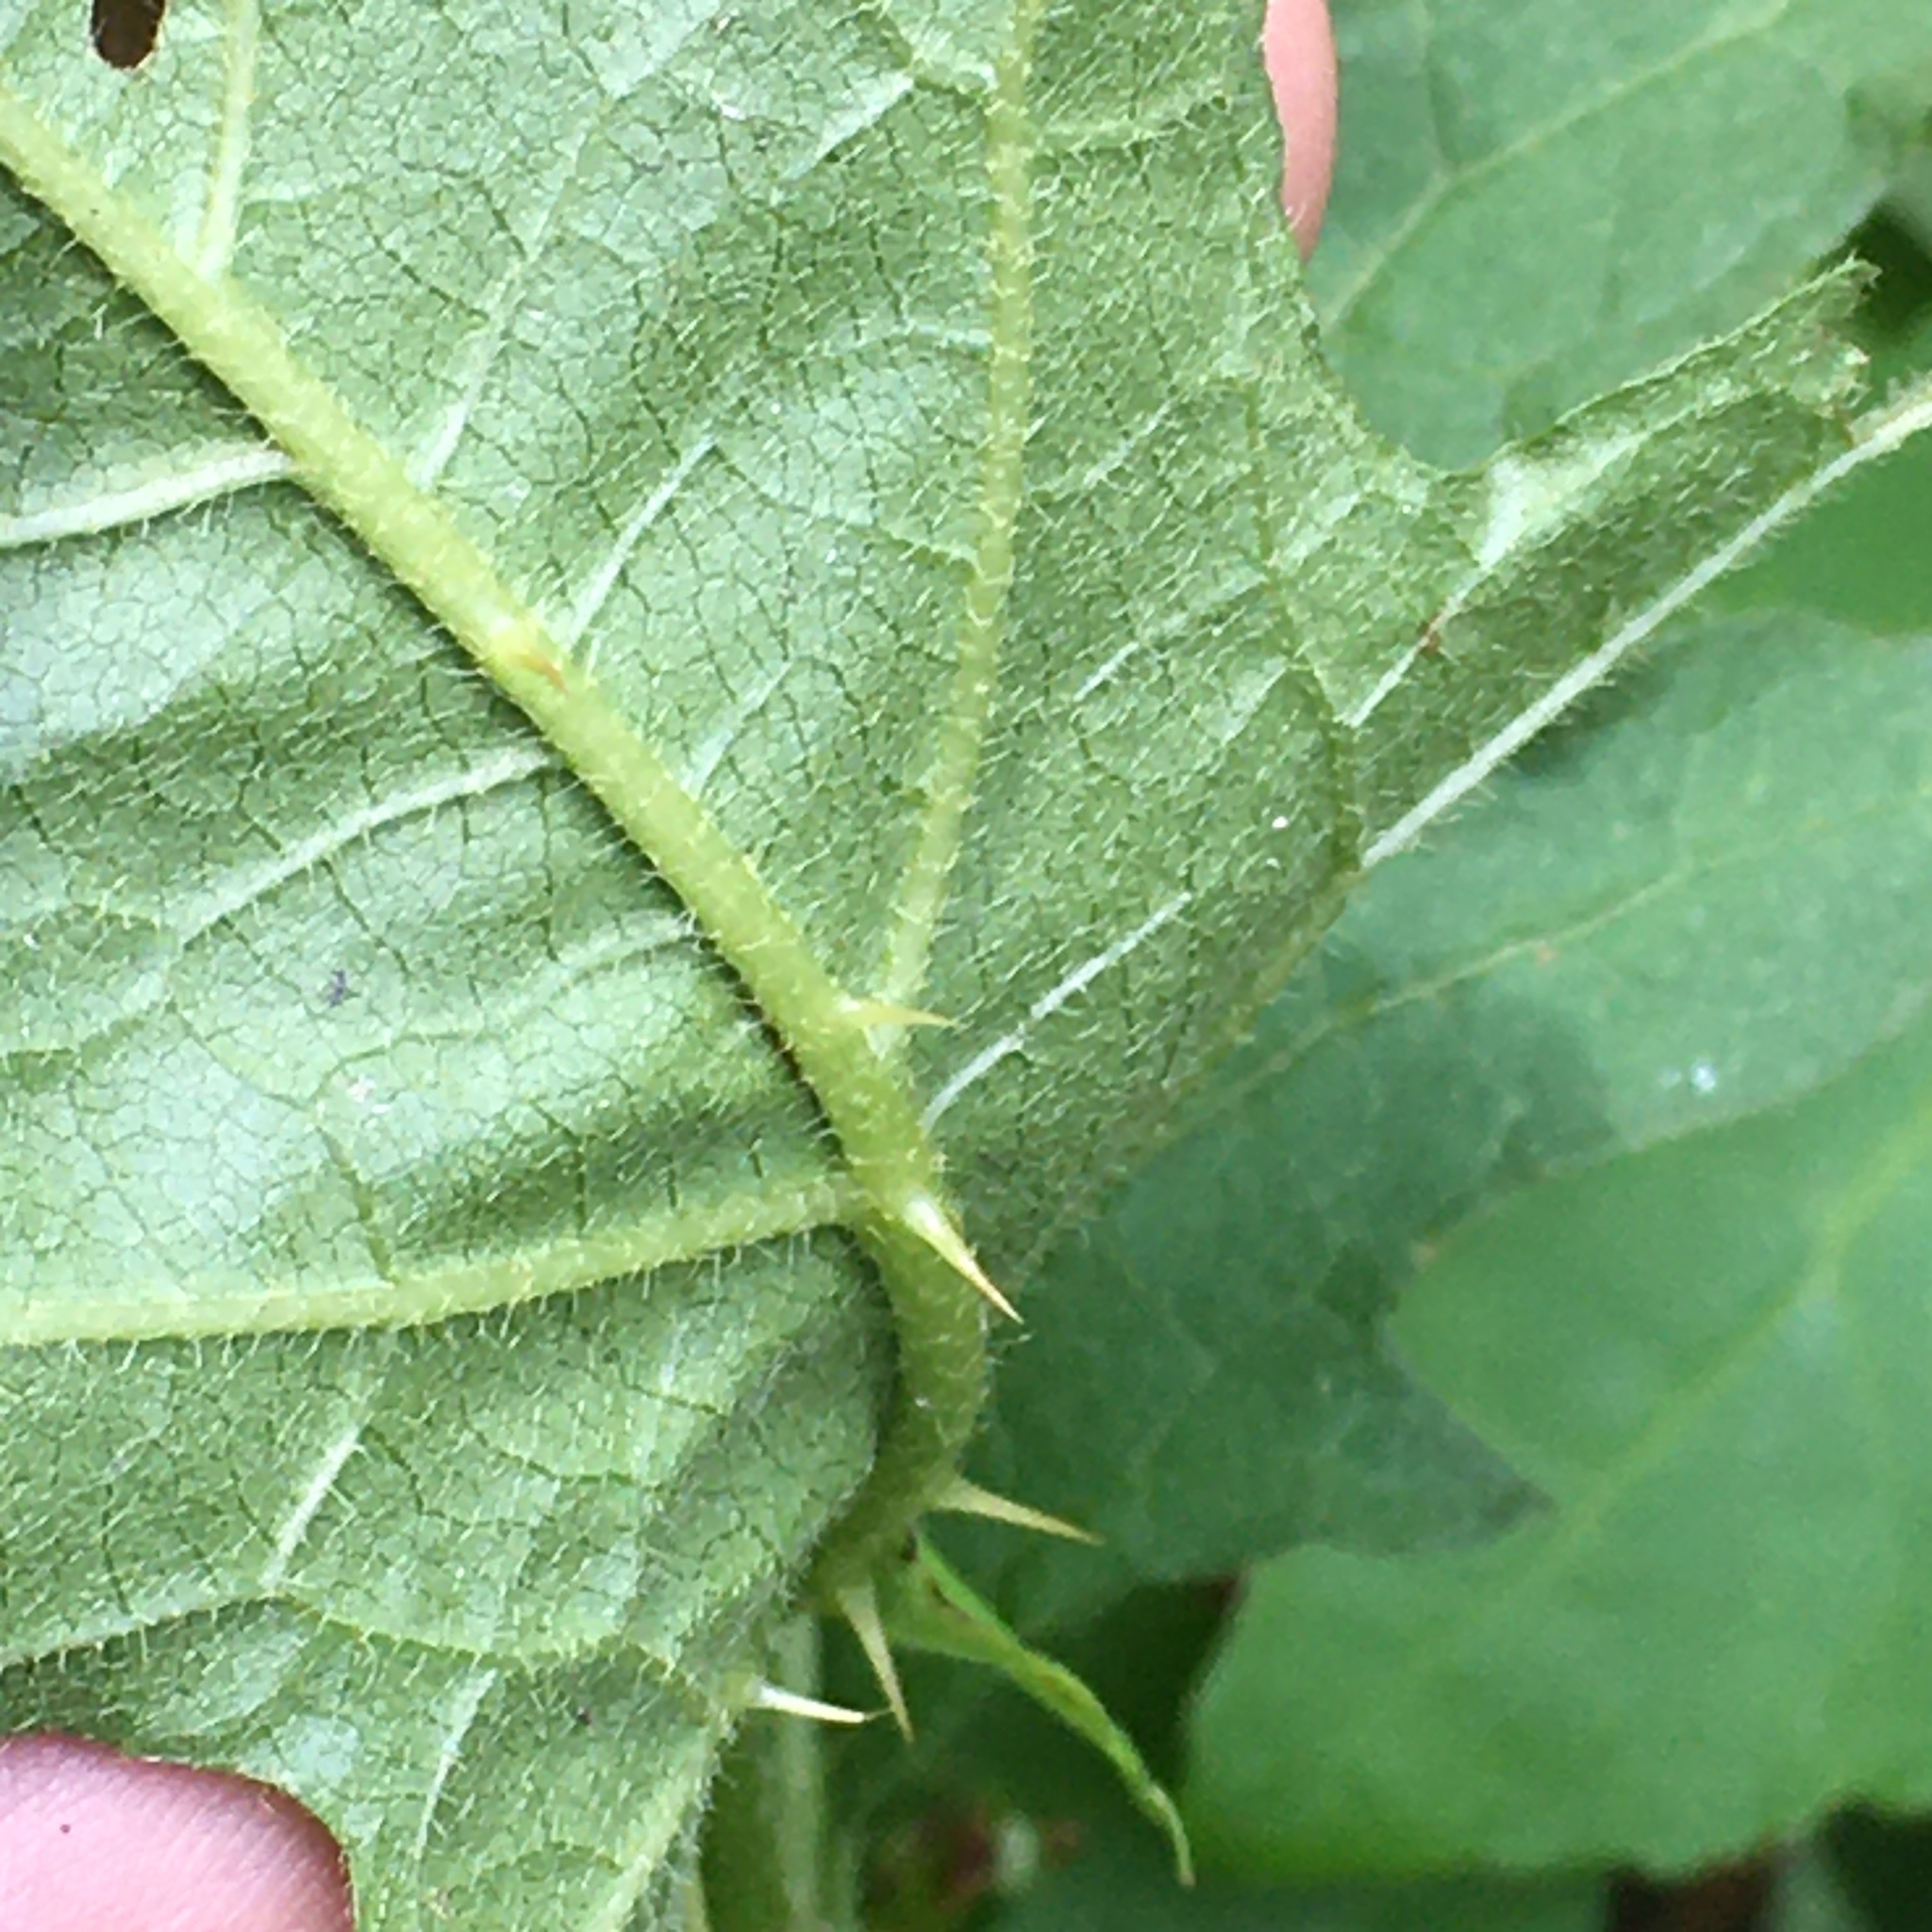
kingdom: Plantae
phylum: Tracheophyta
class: Magnoliopsida
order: Solanales
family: Solanaceae
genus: Solanum
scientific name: Solanum carolinense
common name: Horse-nettle
